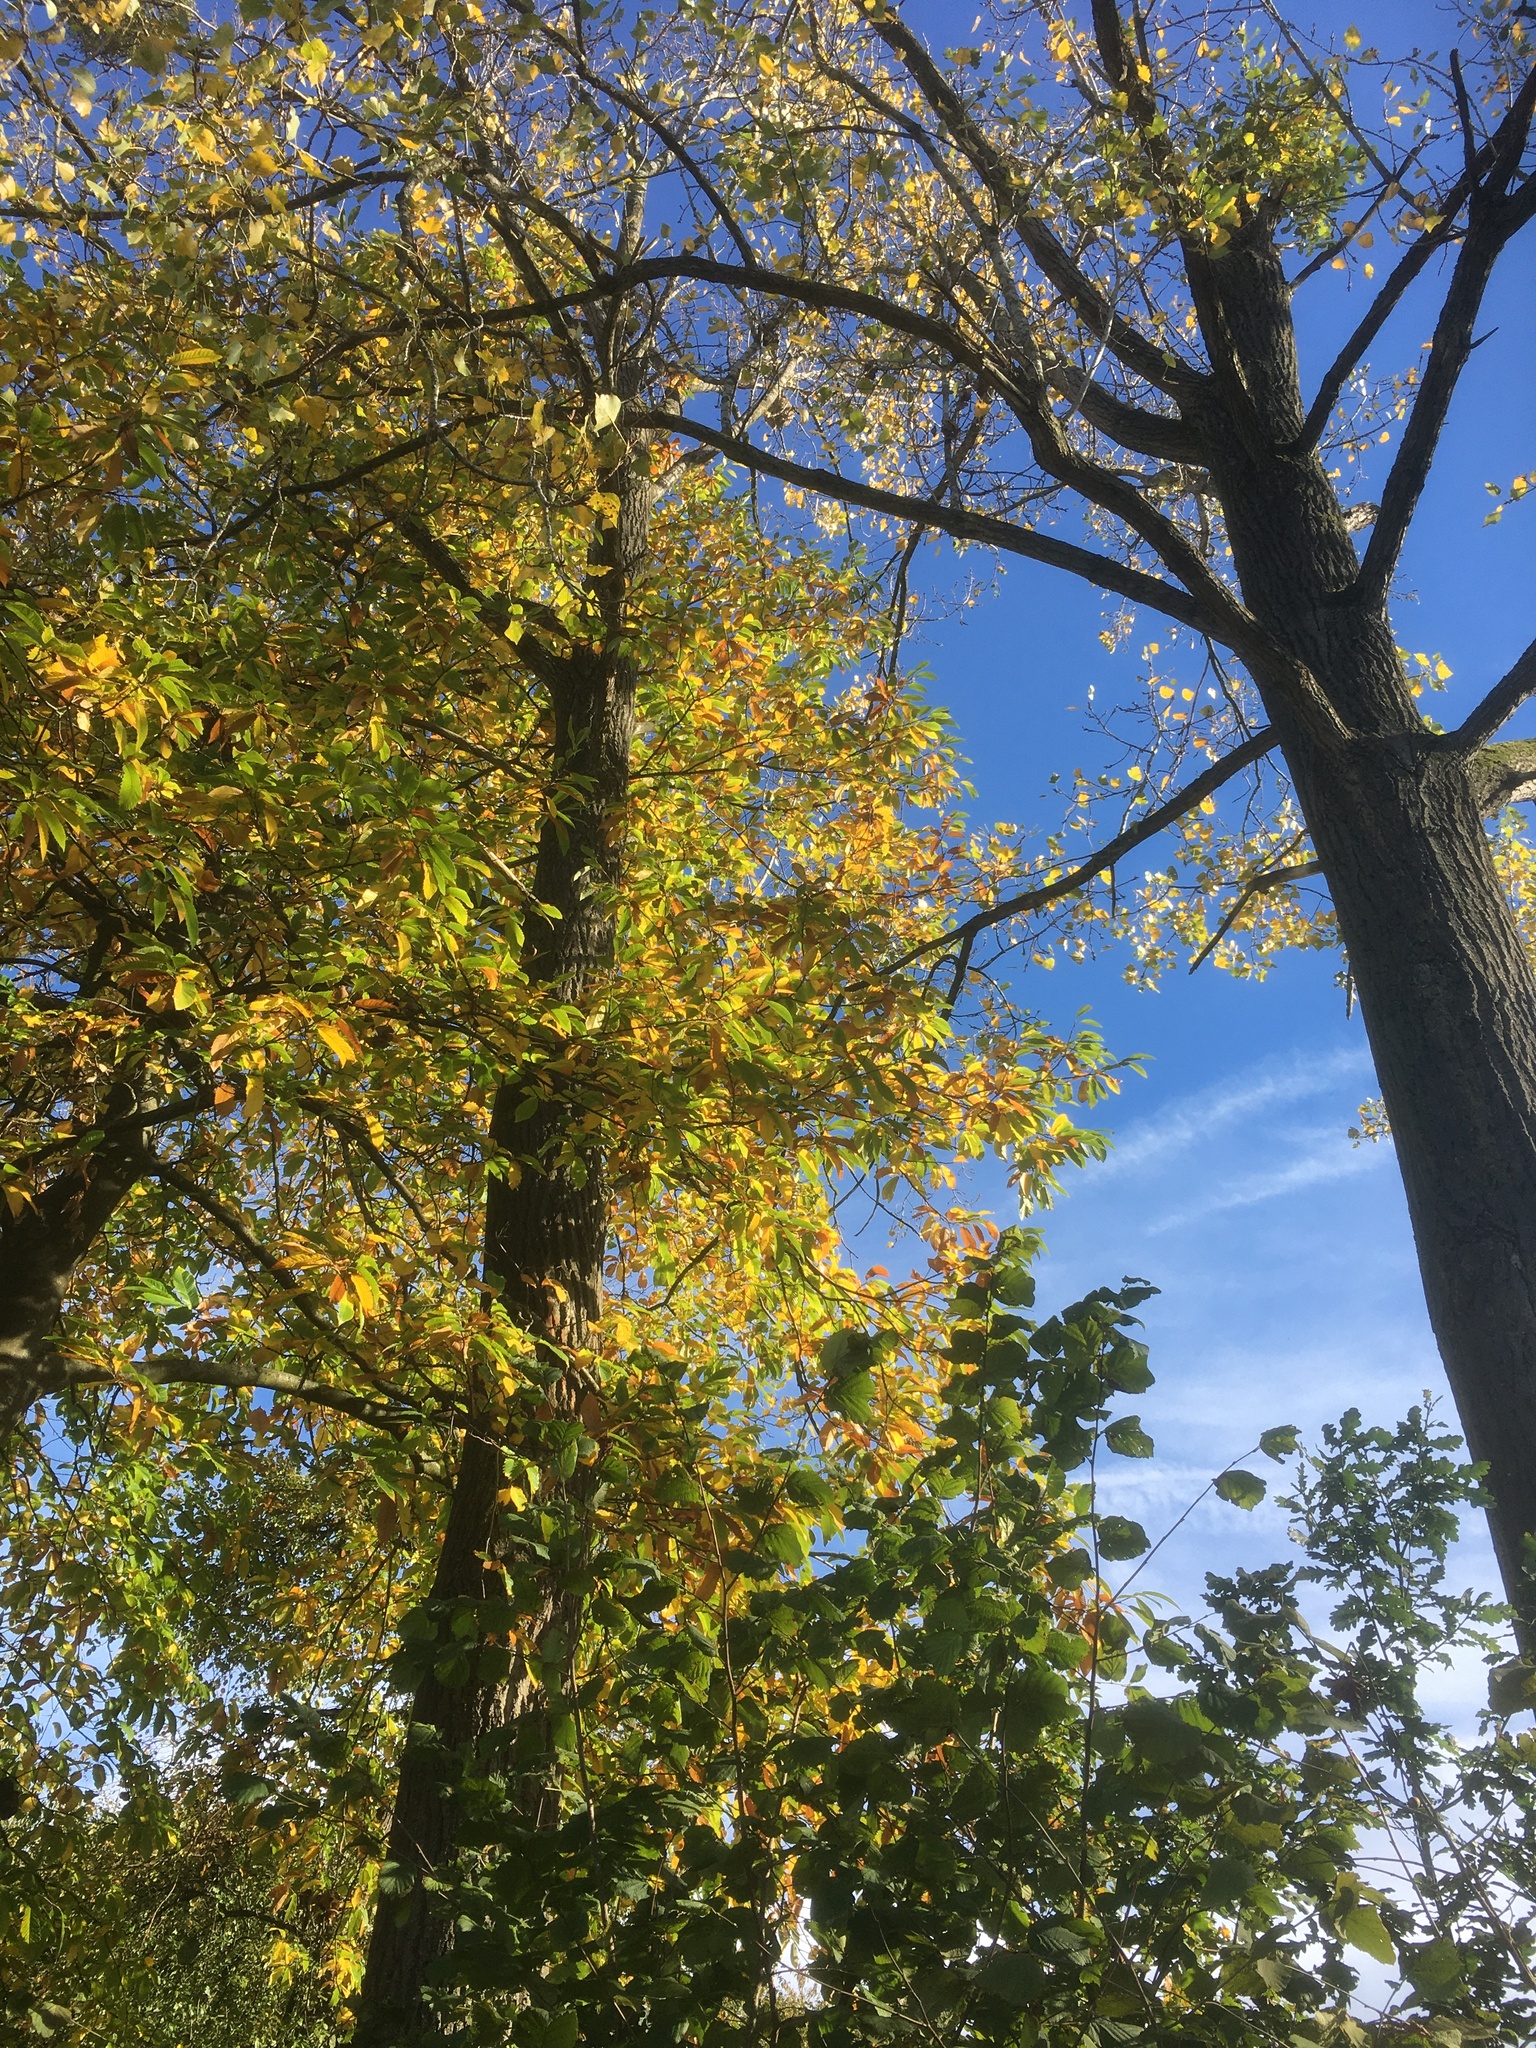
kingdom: Animalia
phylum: Arthropoda
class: Insecta
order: Hymenoptera
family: Vespidae
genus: Vespa
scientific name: Vespa velutina
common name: Asian hornet
